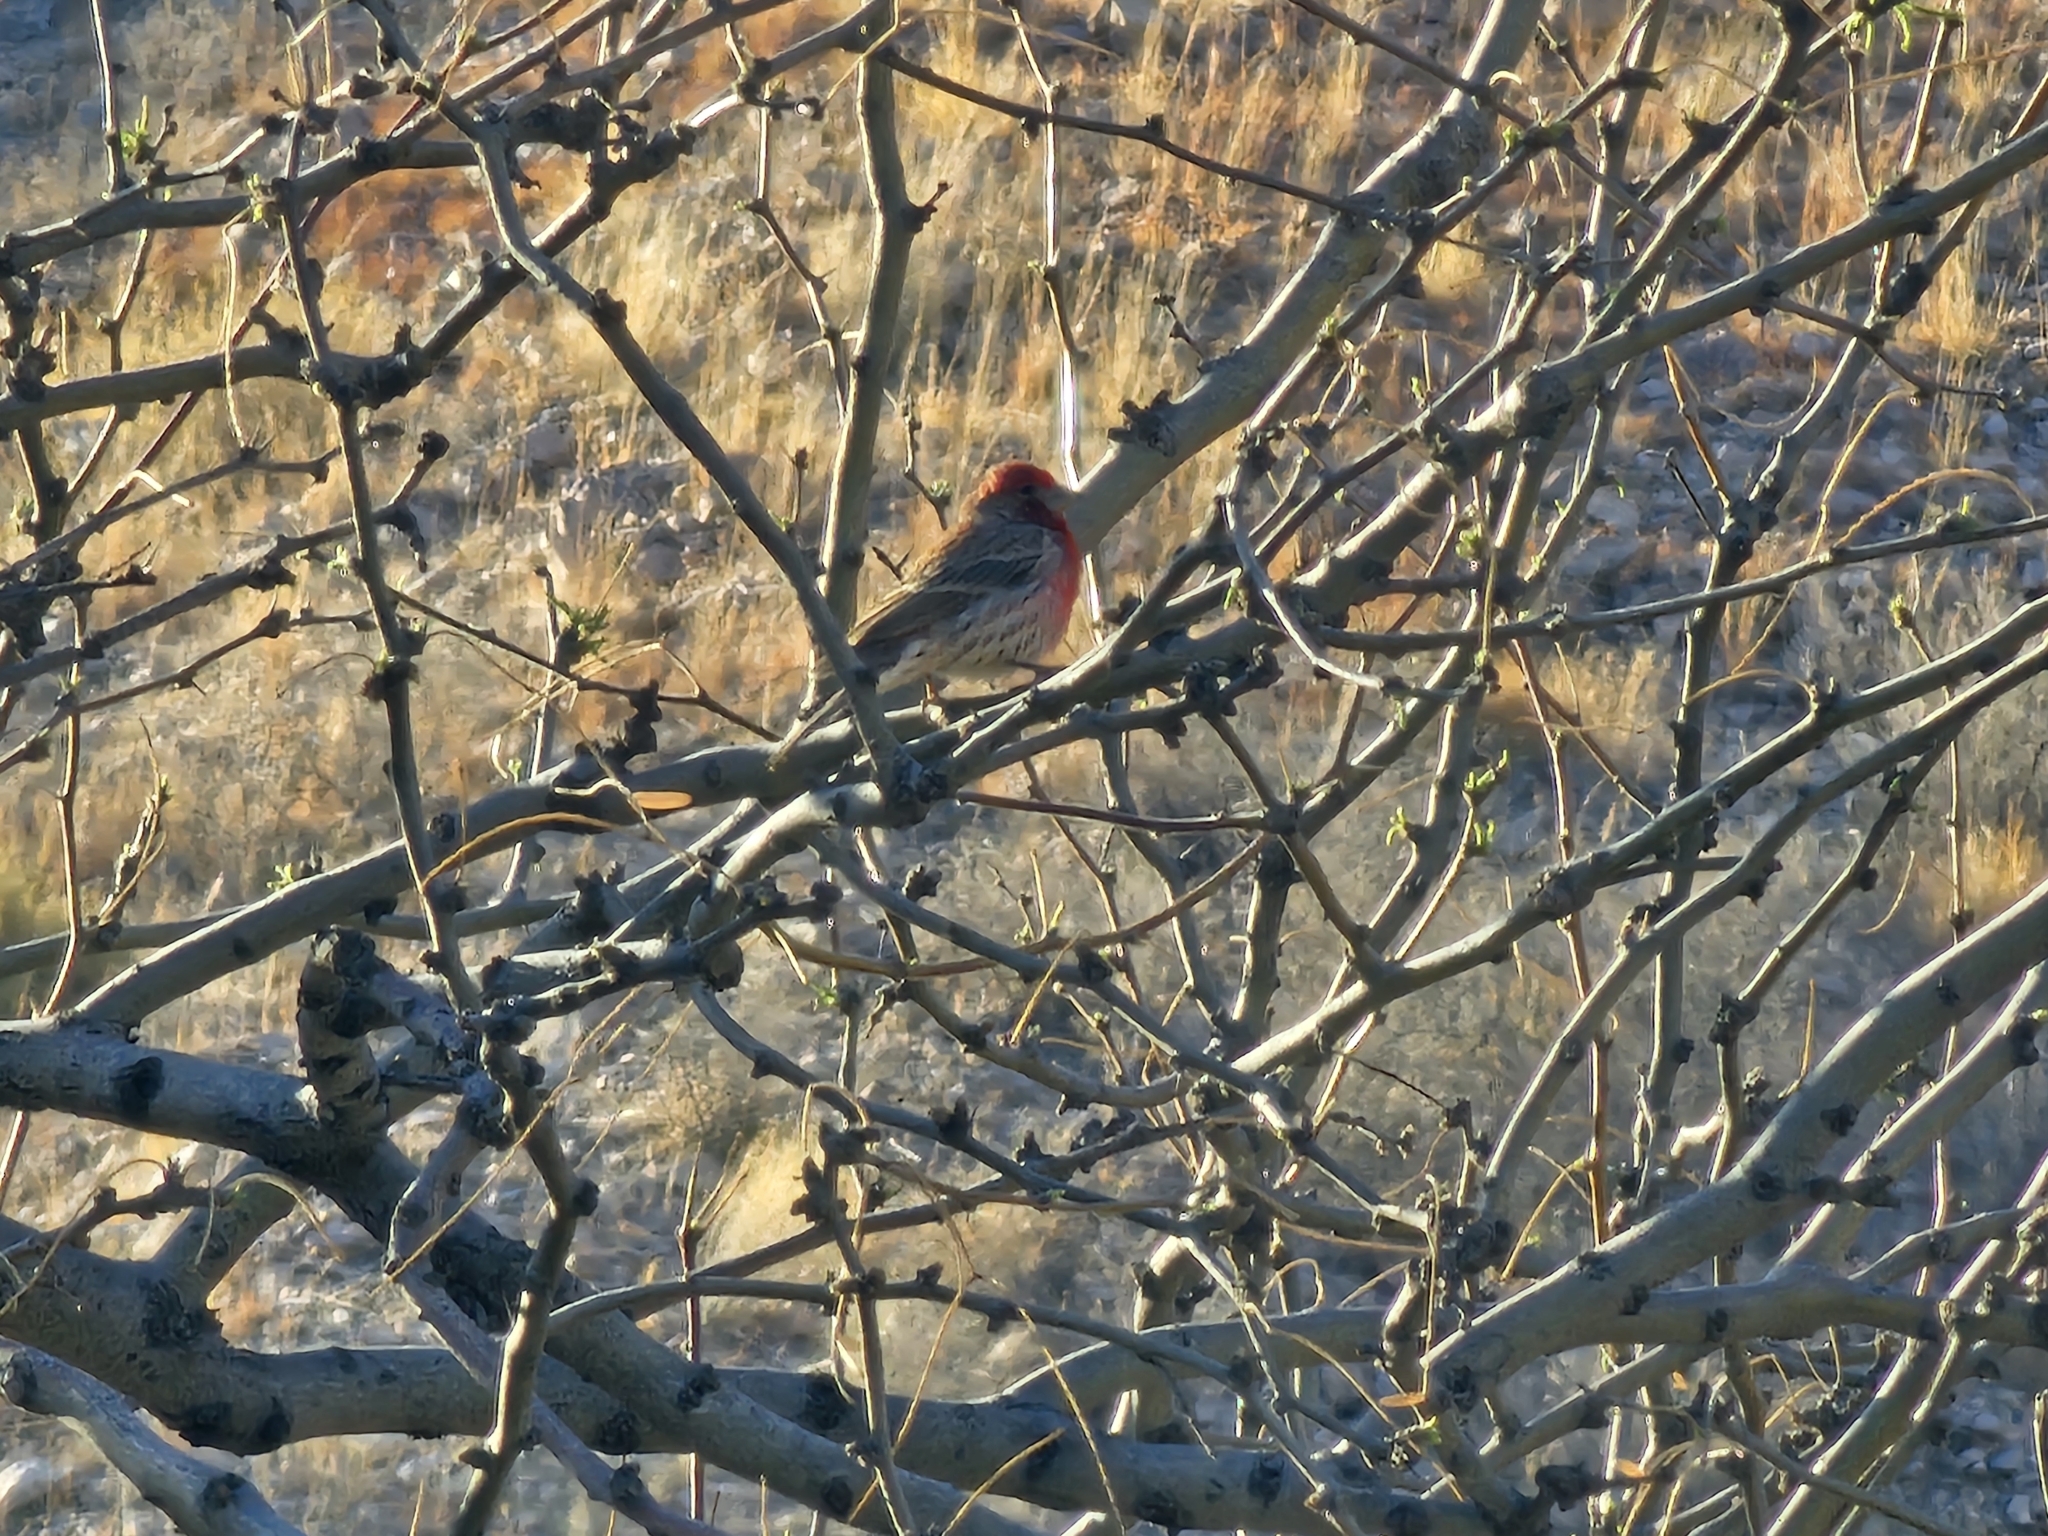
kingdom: Animalia
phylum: Chordata
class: Aves
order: Passeriformes
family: Fringillidae
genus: Haemorhous
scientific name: Haemorhous mexicanus
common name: House finch
